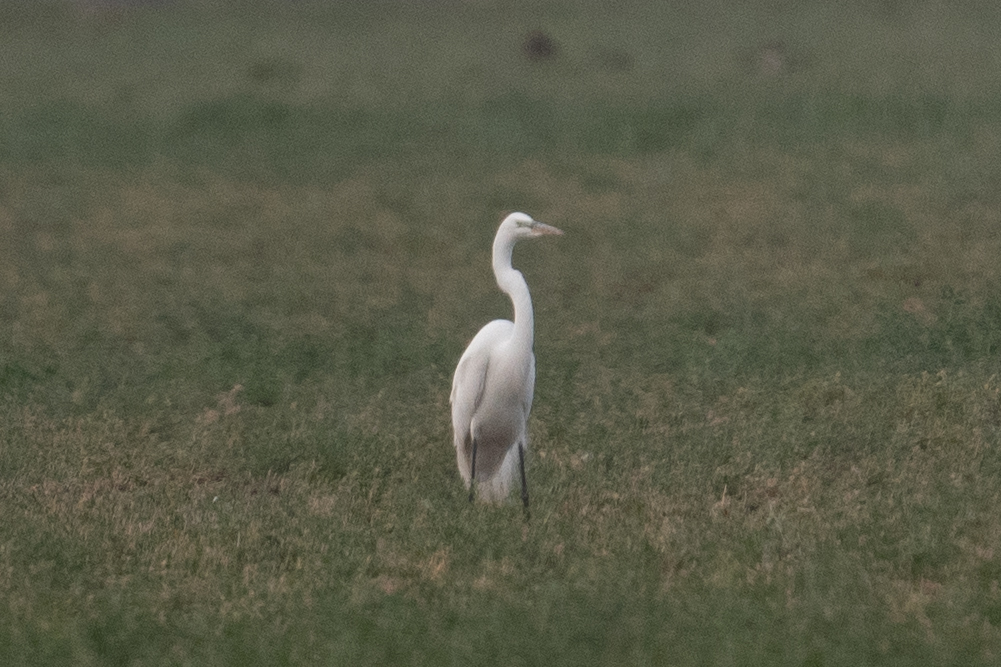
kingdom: Animalia
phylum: Chordata
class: Aves
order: Pelecaniformes
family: Ardeidae
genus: Ardea
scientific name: Ardea alba
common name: Great egret
